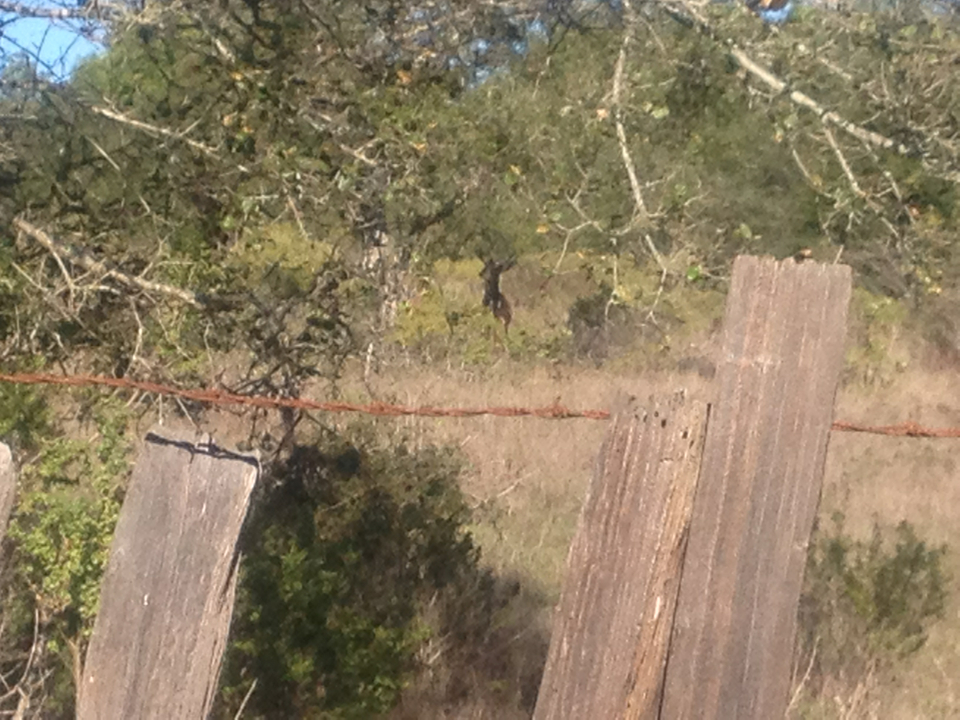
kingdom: Animalia
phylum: Chordata
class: Mammalia
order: Artiodactyla
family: Cervidae
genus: Odocoileus
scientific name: Odocoileus hemionus
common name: Mule deer
